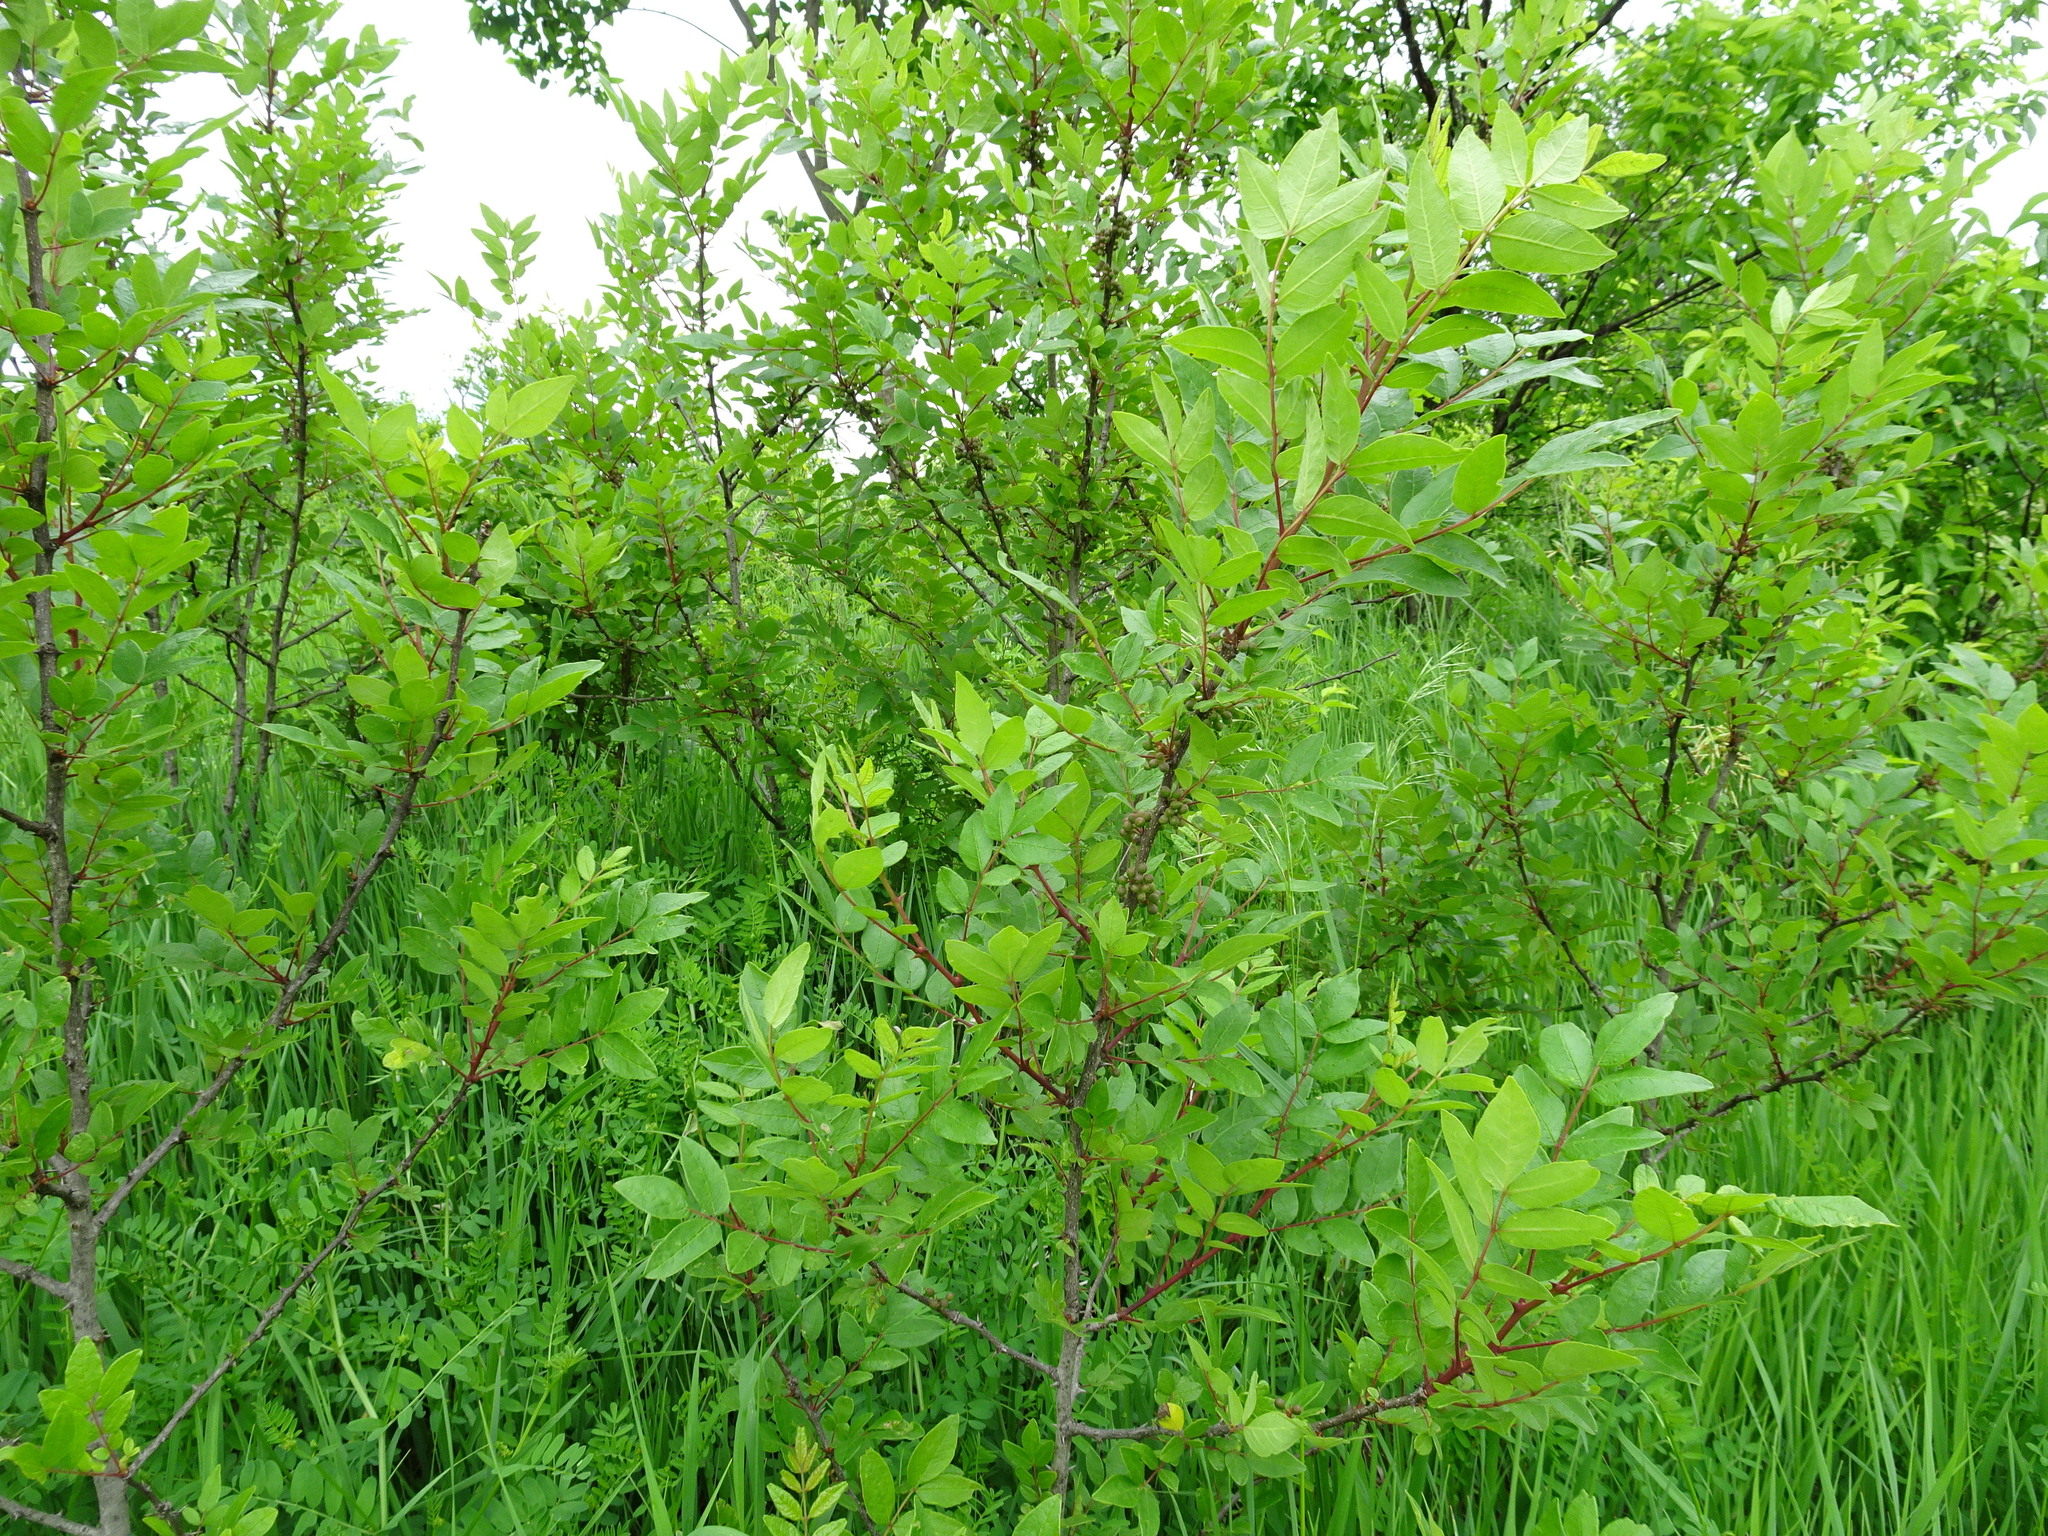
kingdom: Plantae
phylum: Tracheophyta
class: Magnoliopsida
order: Sapindales
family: Rutaceae
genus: Zanthoxylum
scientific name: Zanthoxylum americanum
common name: Northern prickly-ash
